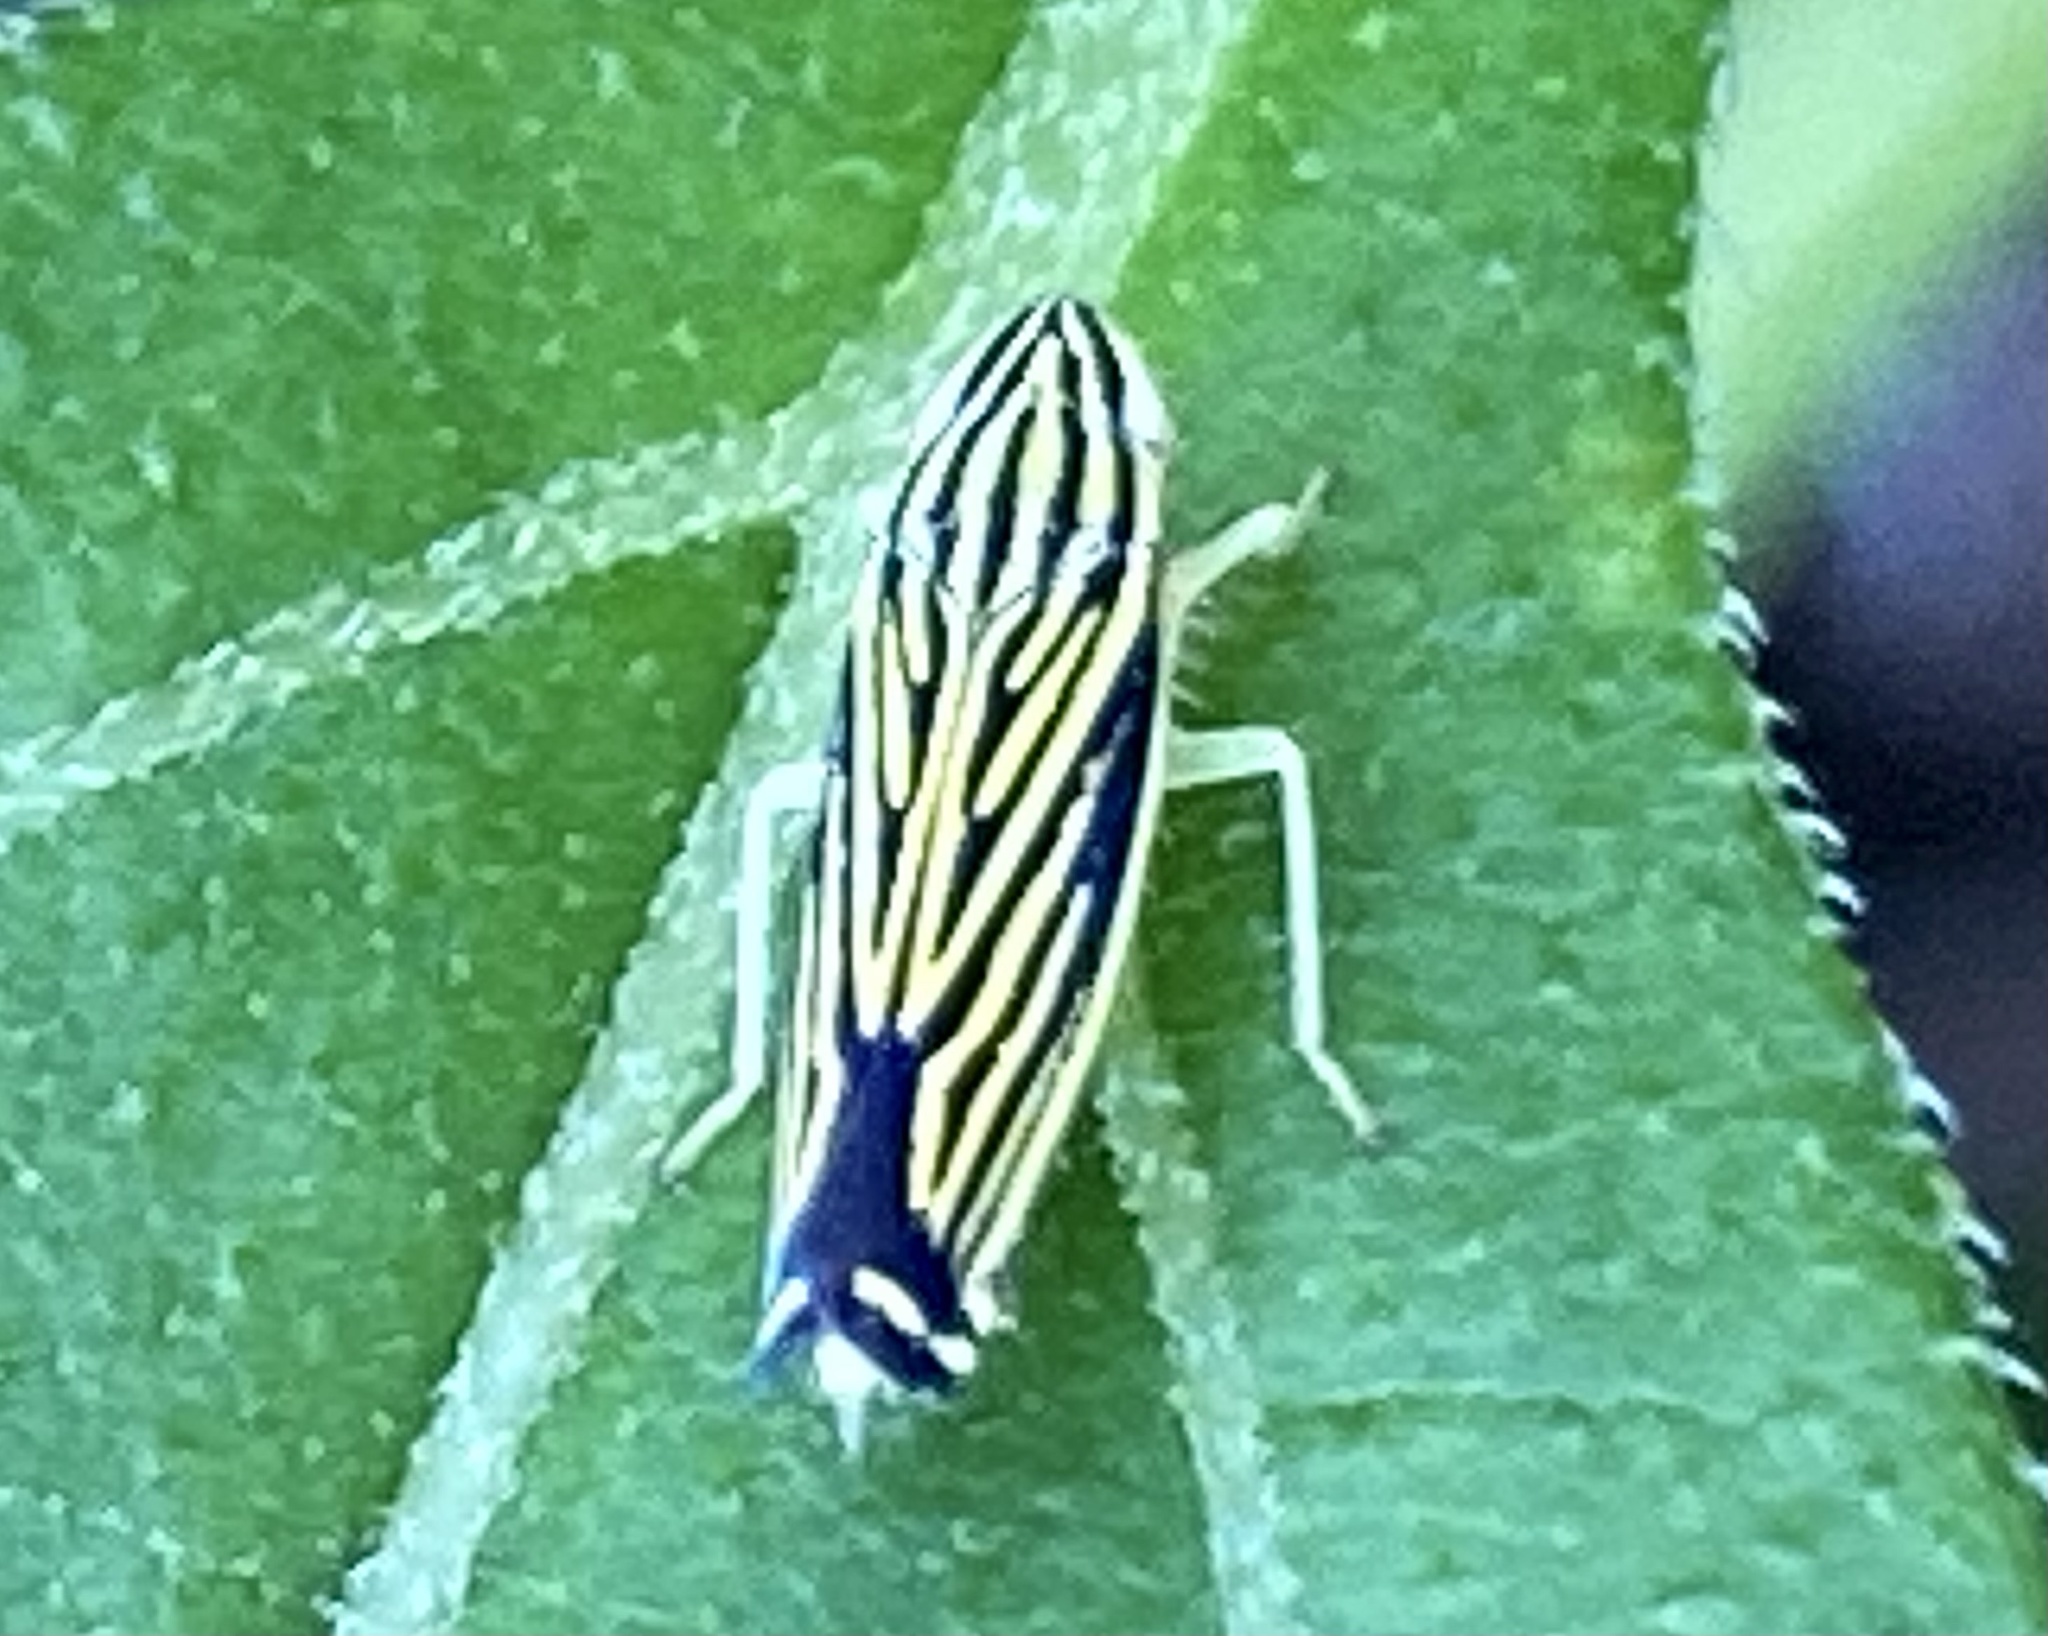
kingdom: Animalia
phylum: Arthropoda
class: Insecta
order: Hemiptera
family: Cicadellidae
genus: Sibovia
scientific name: Sibovia occatoria
